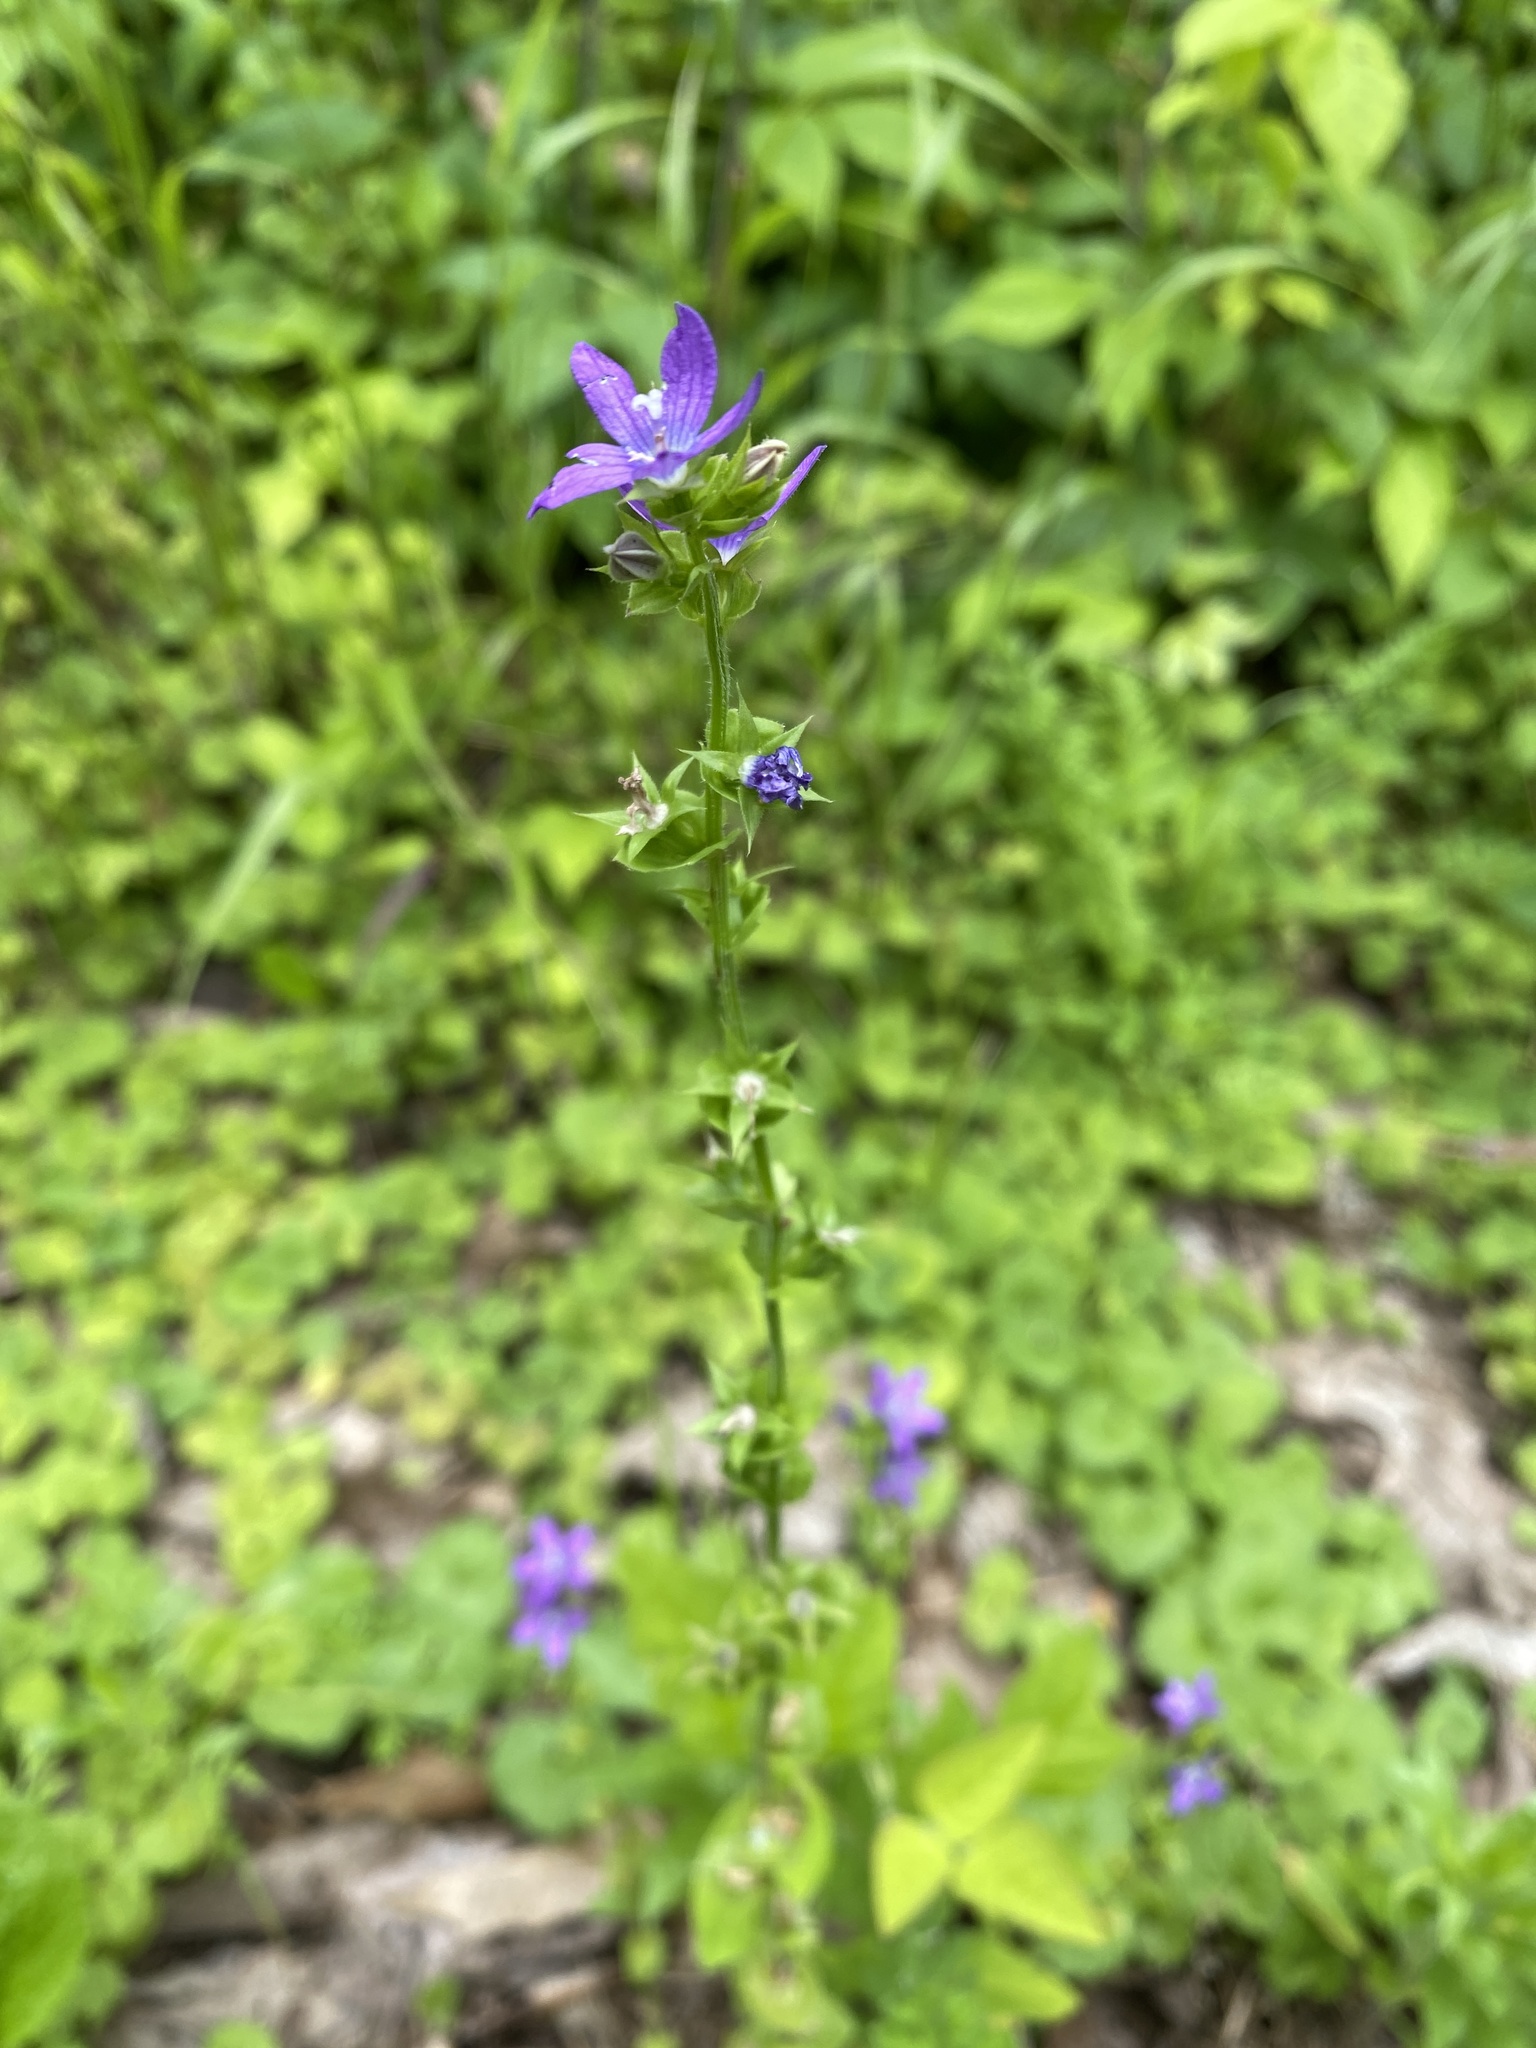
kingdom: Plantae
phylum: Tracheophyta
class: Magnoliopsida
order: Asterales
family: Campanulaceae
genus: Triodanis
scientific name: Triodanis perfoliata
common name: Clasping venus' looking-glass
